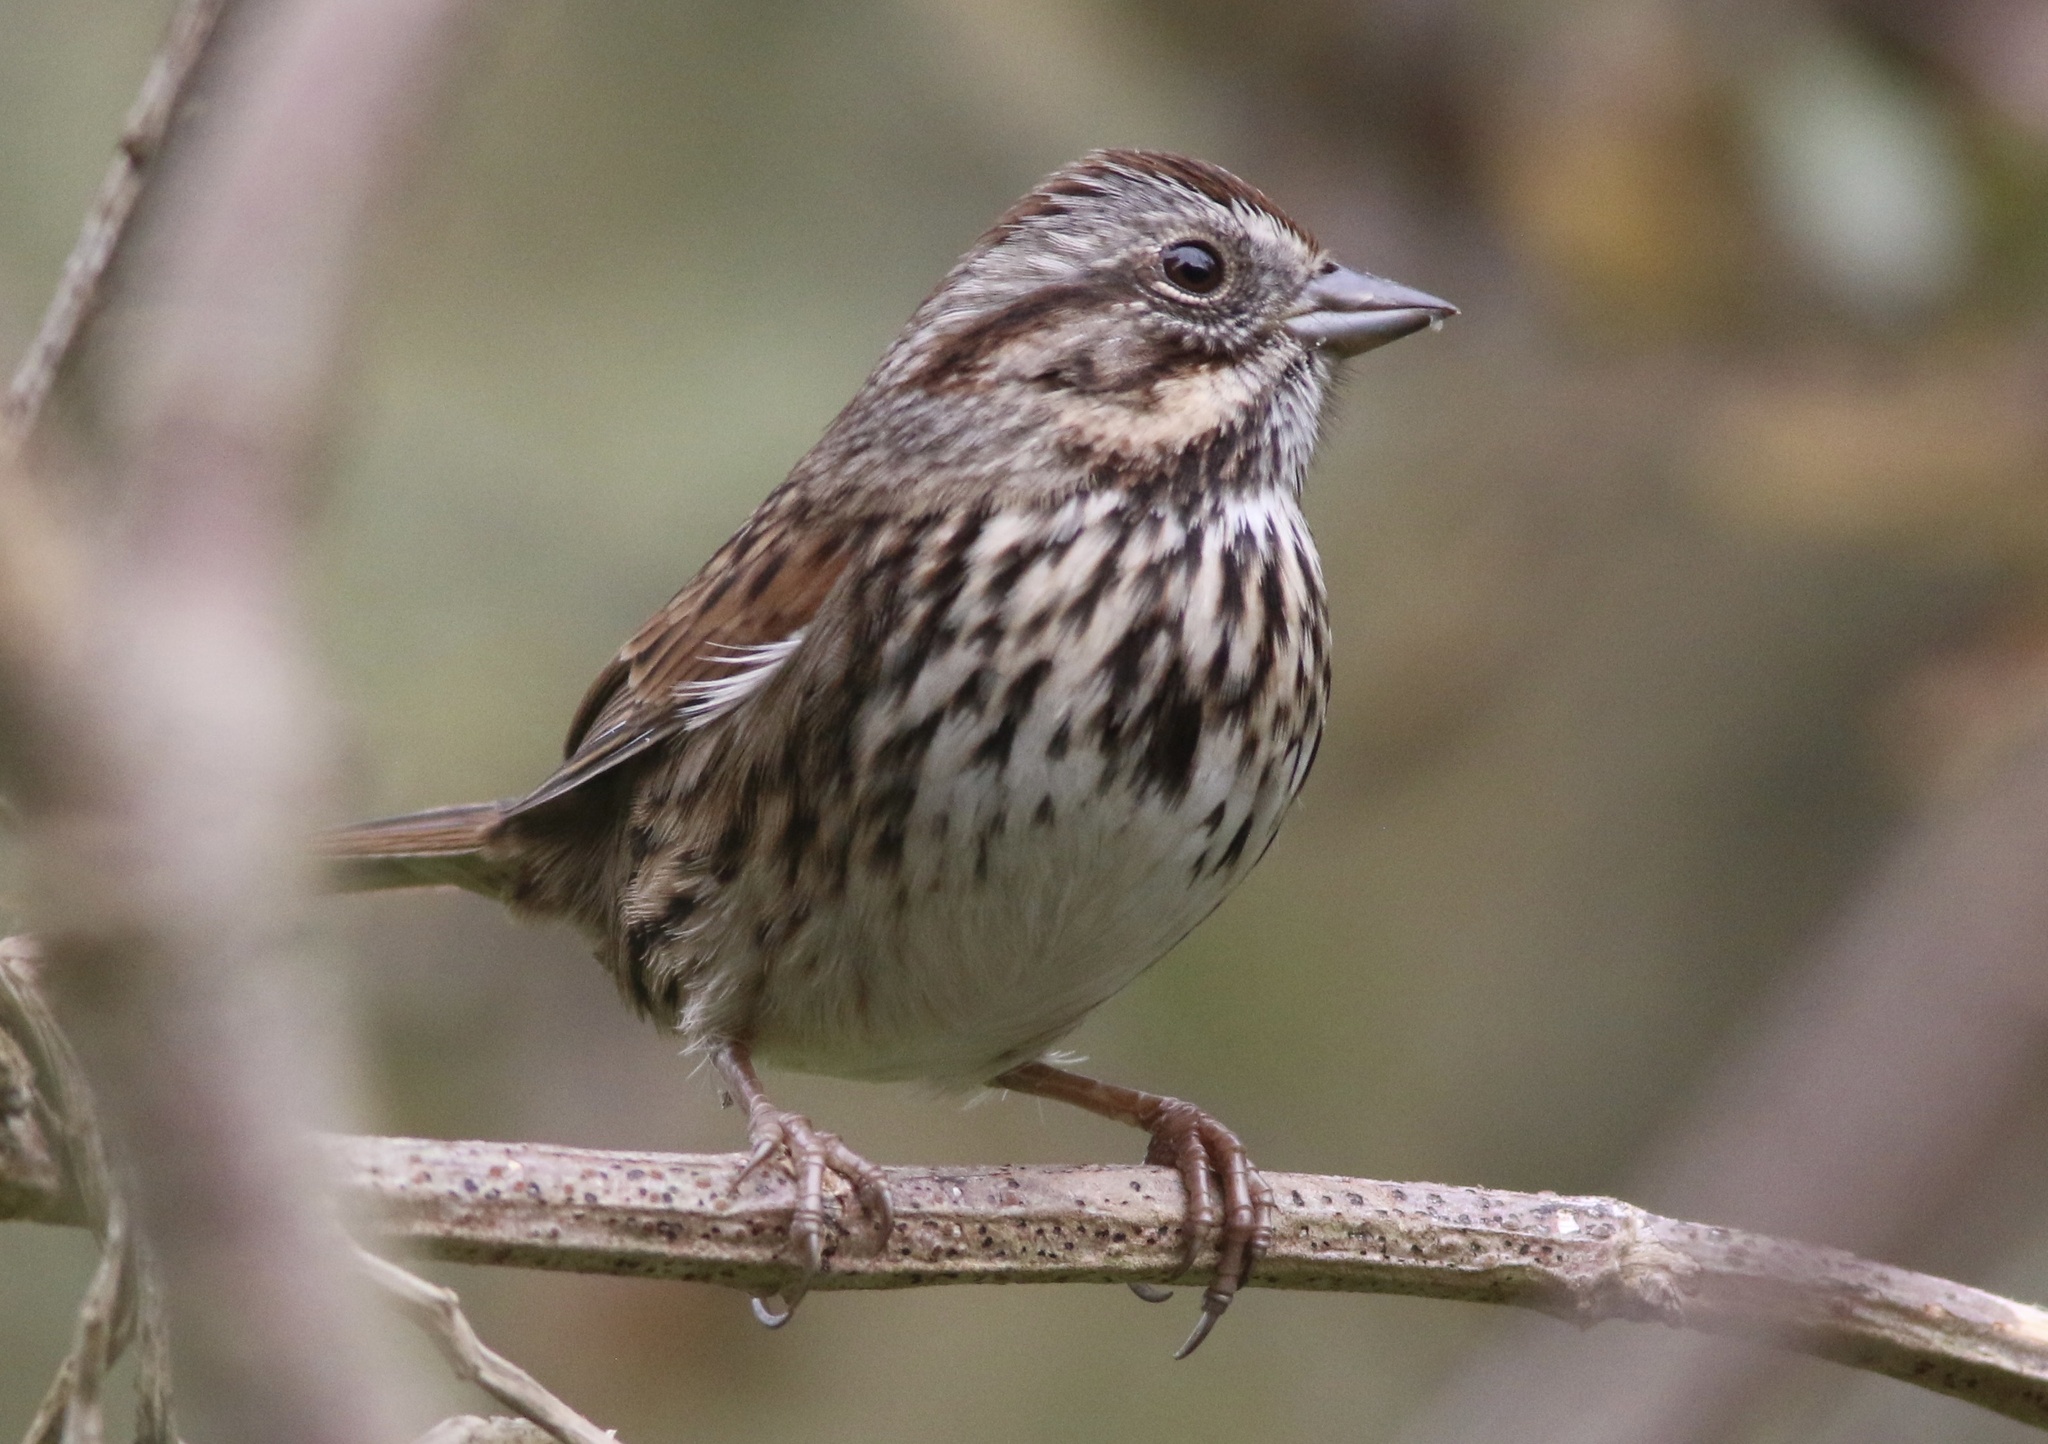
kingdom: Animalia
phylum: Chordata
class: Aves
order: Passeriformes
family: Passerellidae
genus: Melospiza
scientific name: Melospiza melodia
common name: Song sparrow
